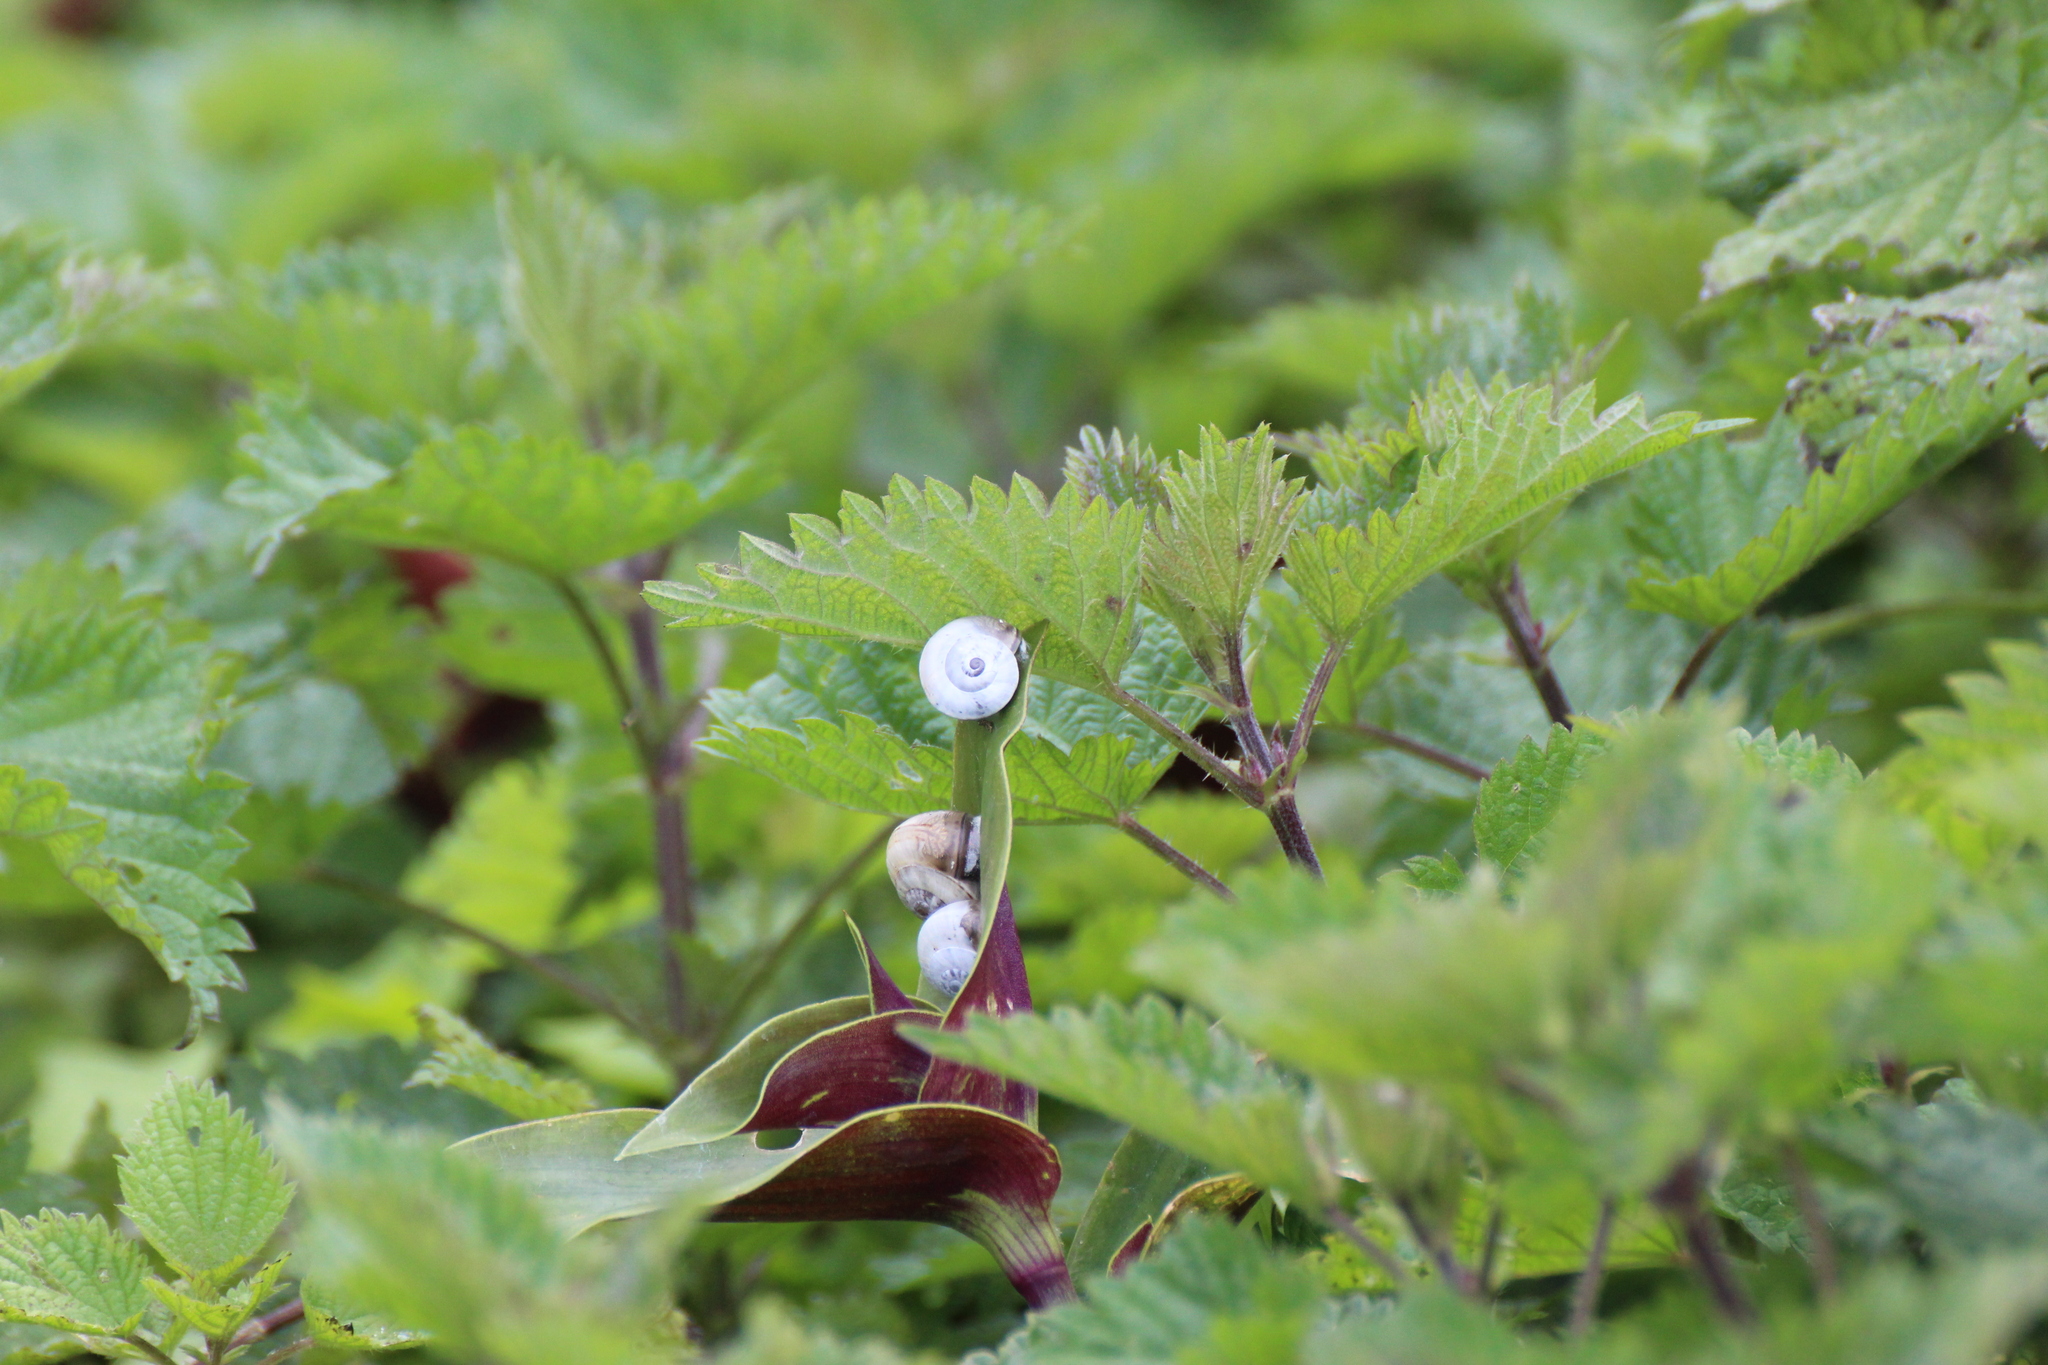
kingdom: Animalia
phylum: Mollusca
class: Gastropoda
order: Stylommatophora
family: Helicidae
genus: Theba
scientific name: Theba pisana
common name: White snail
